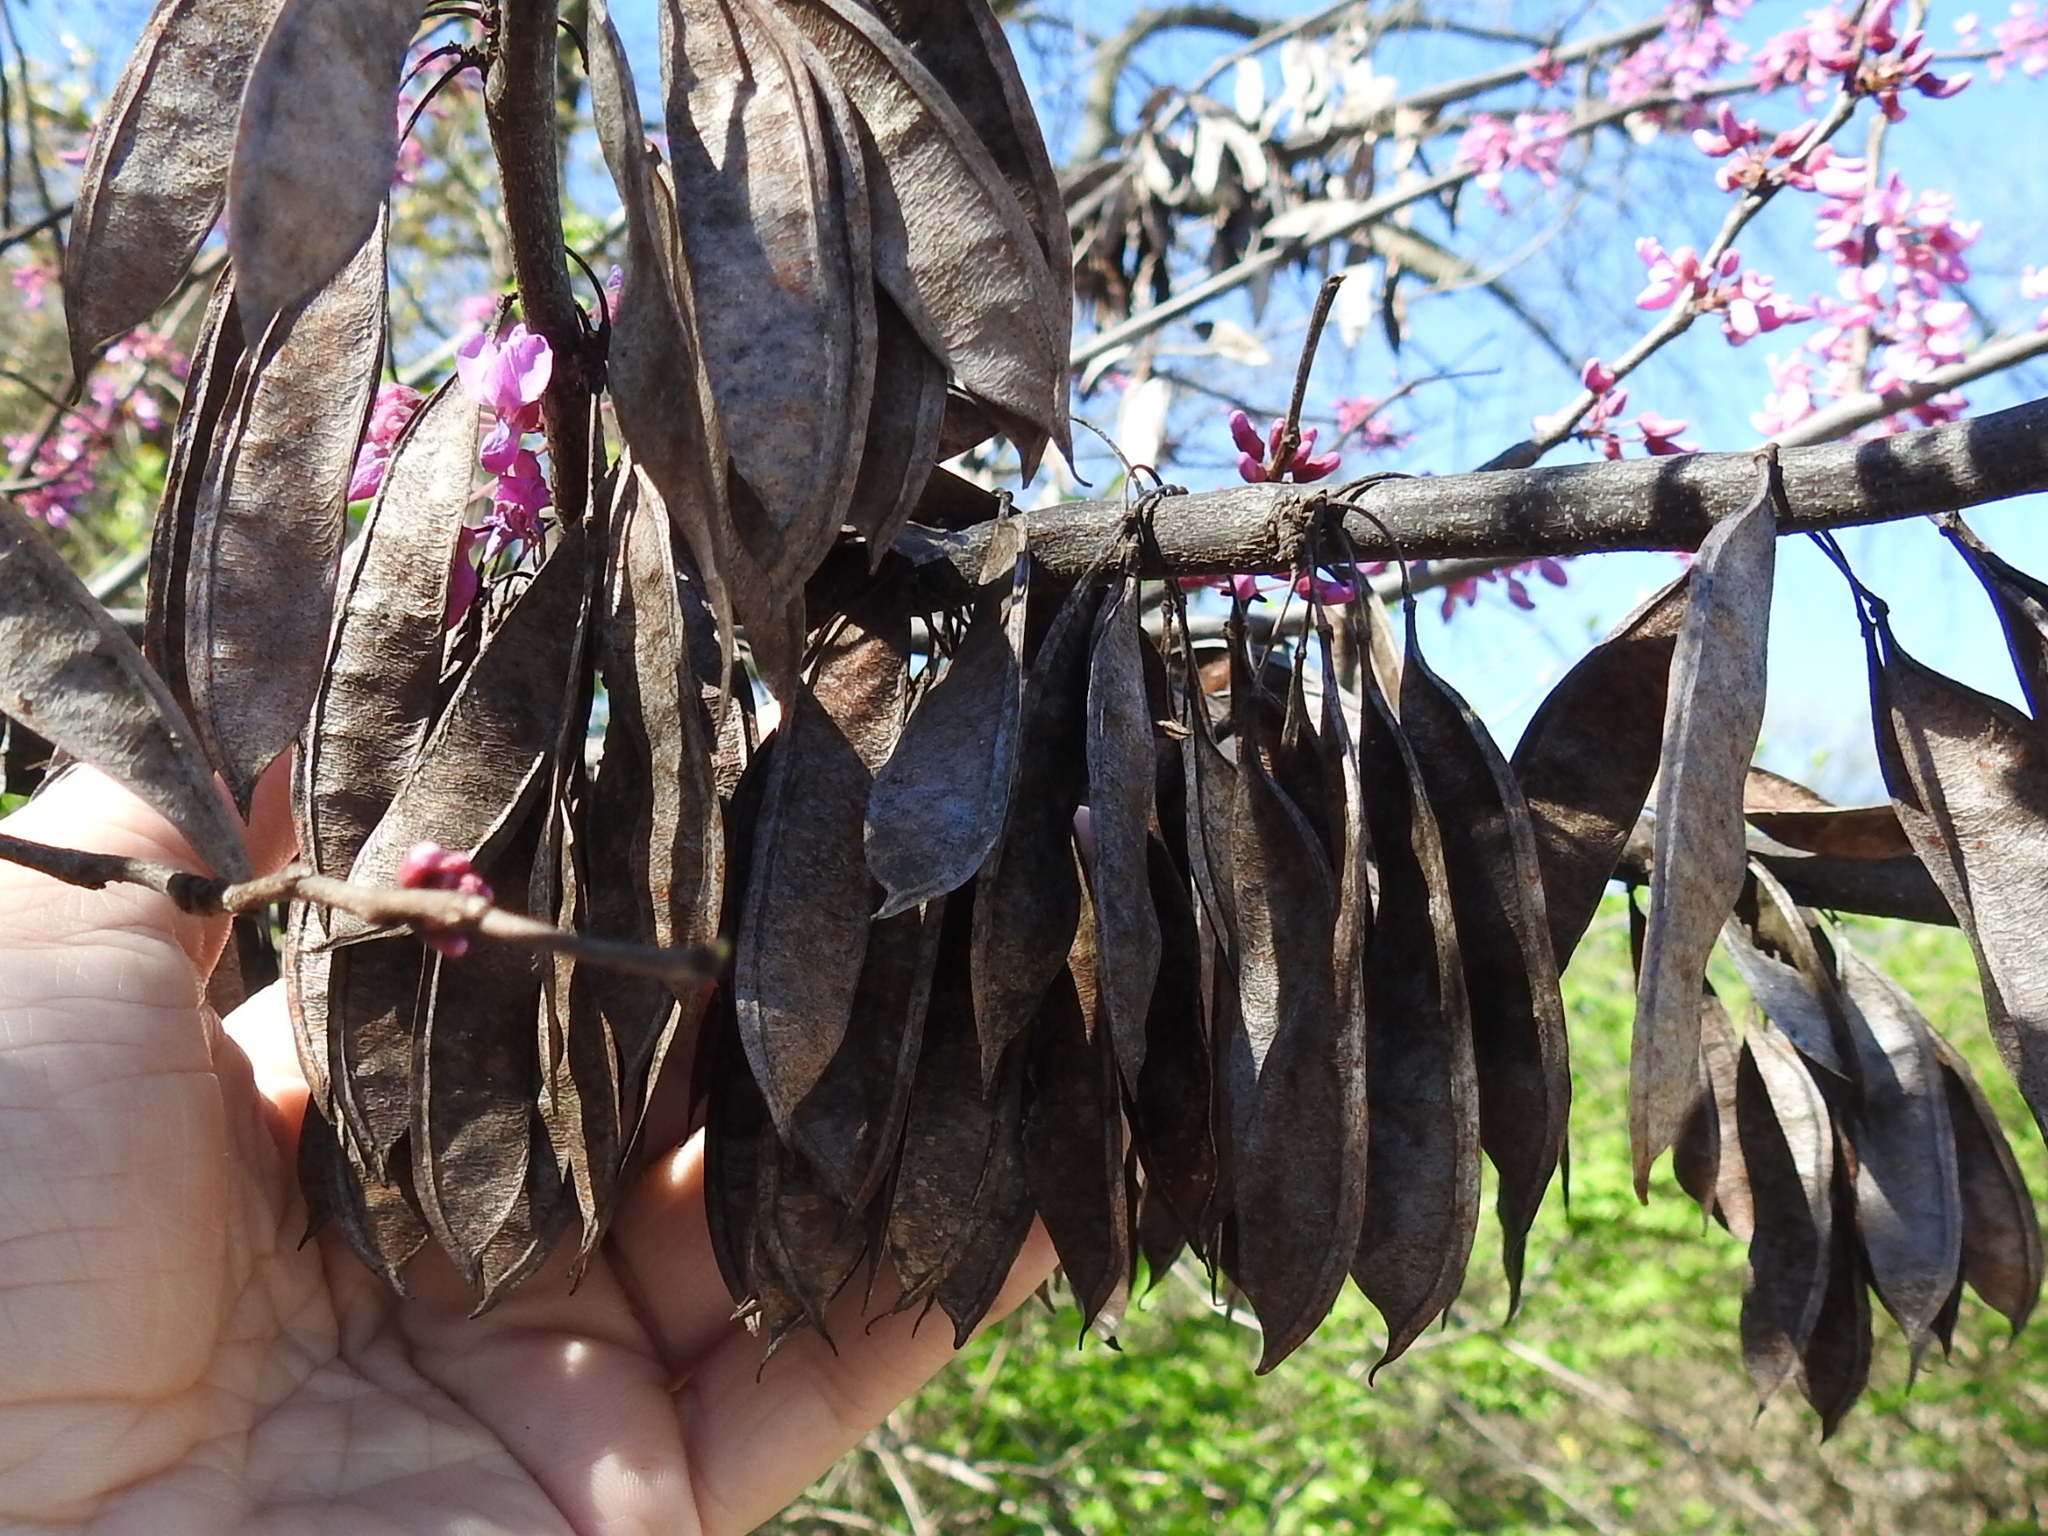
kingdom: Plantae
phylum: Tracheophyta
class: Magnoliopsida
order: Fabales
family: Fabaceae
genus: Cercis
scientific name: Cercis canadensis
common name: Eastern redbud
